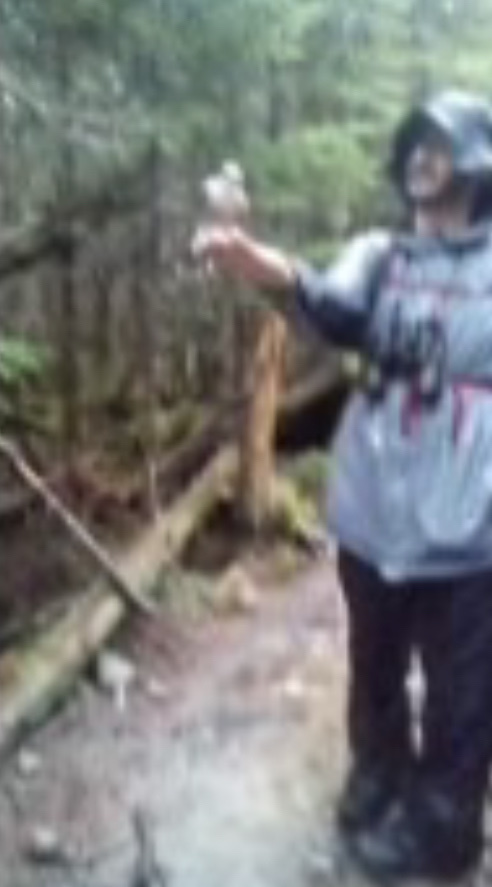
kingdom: Animalia
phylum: Chordata
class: Aves
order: Passeriformes
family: Corvidae
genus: Perisoreus
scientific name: Perisoreus canadensis
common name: Gray jay
